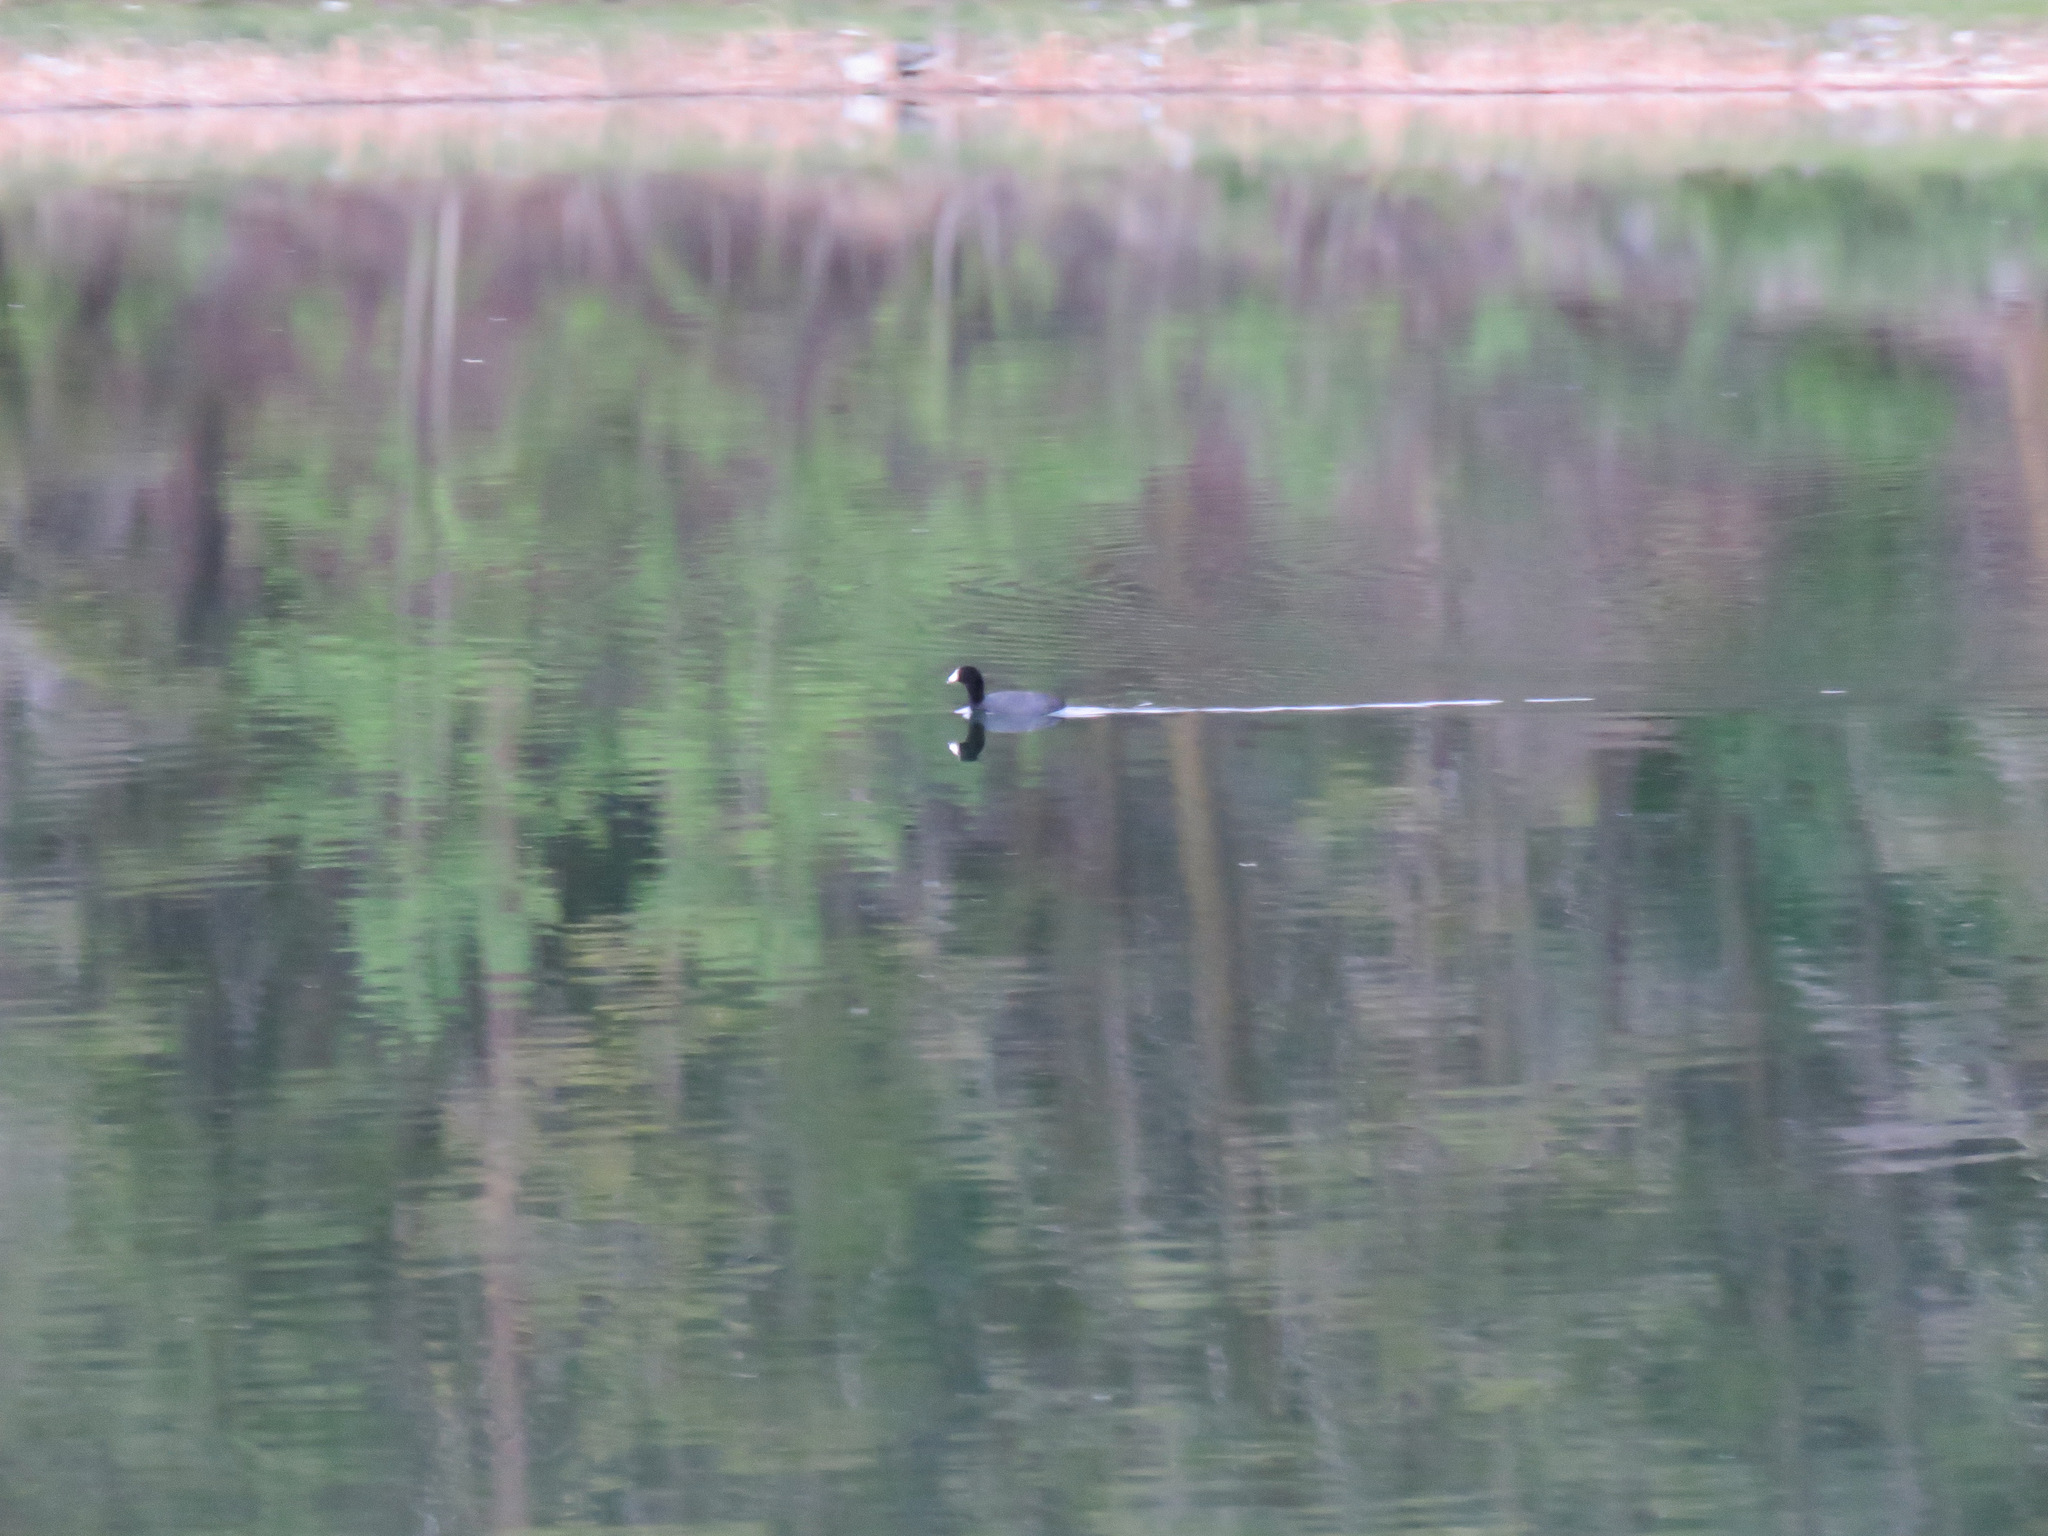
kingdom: Animalia
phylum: Chordata
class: Aves
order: Gruiformes
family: Rallidae
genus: Fulica
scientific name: Fulica americana
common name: American coot
